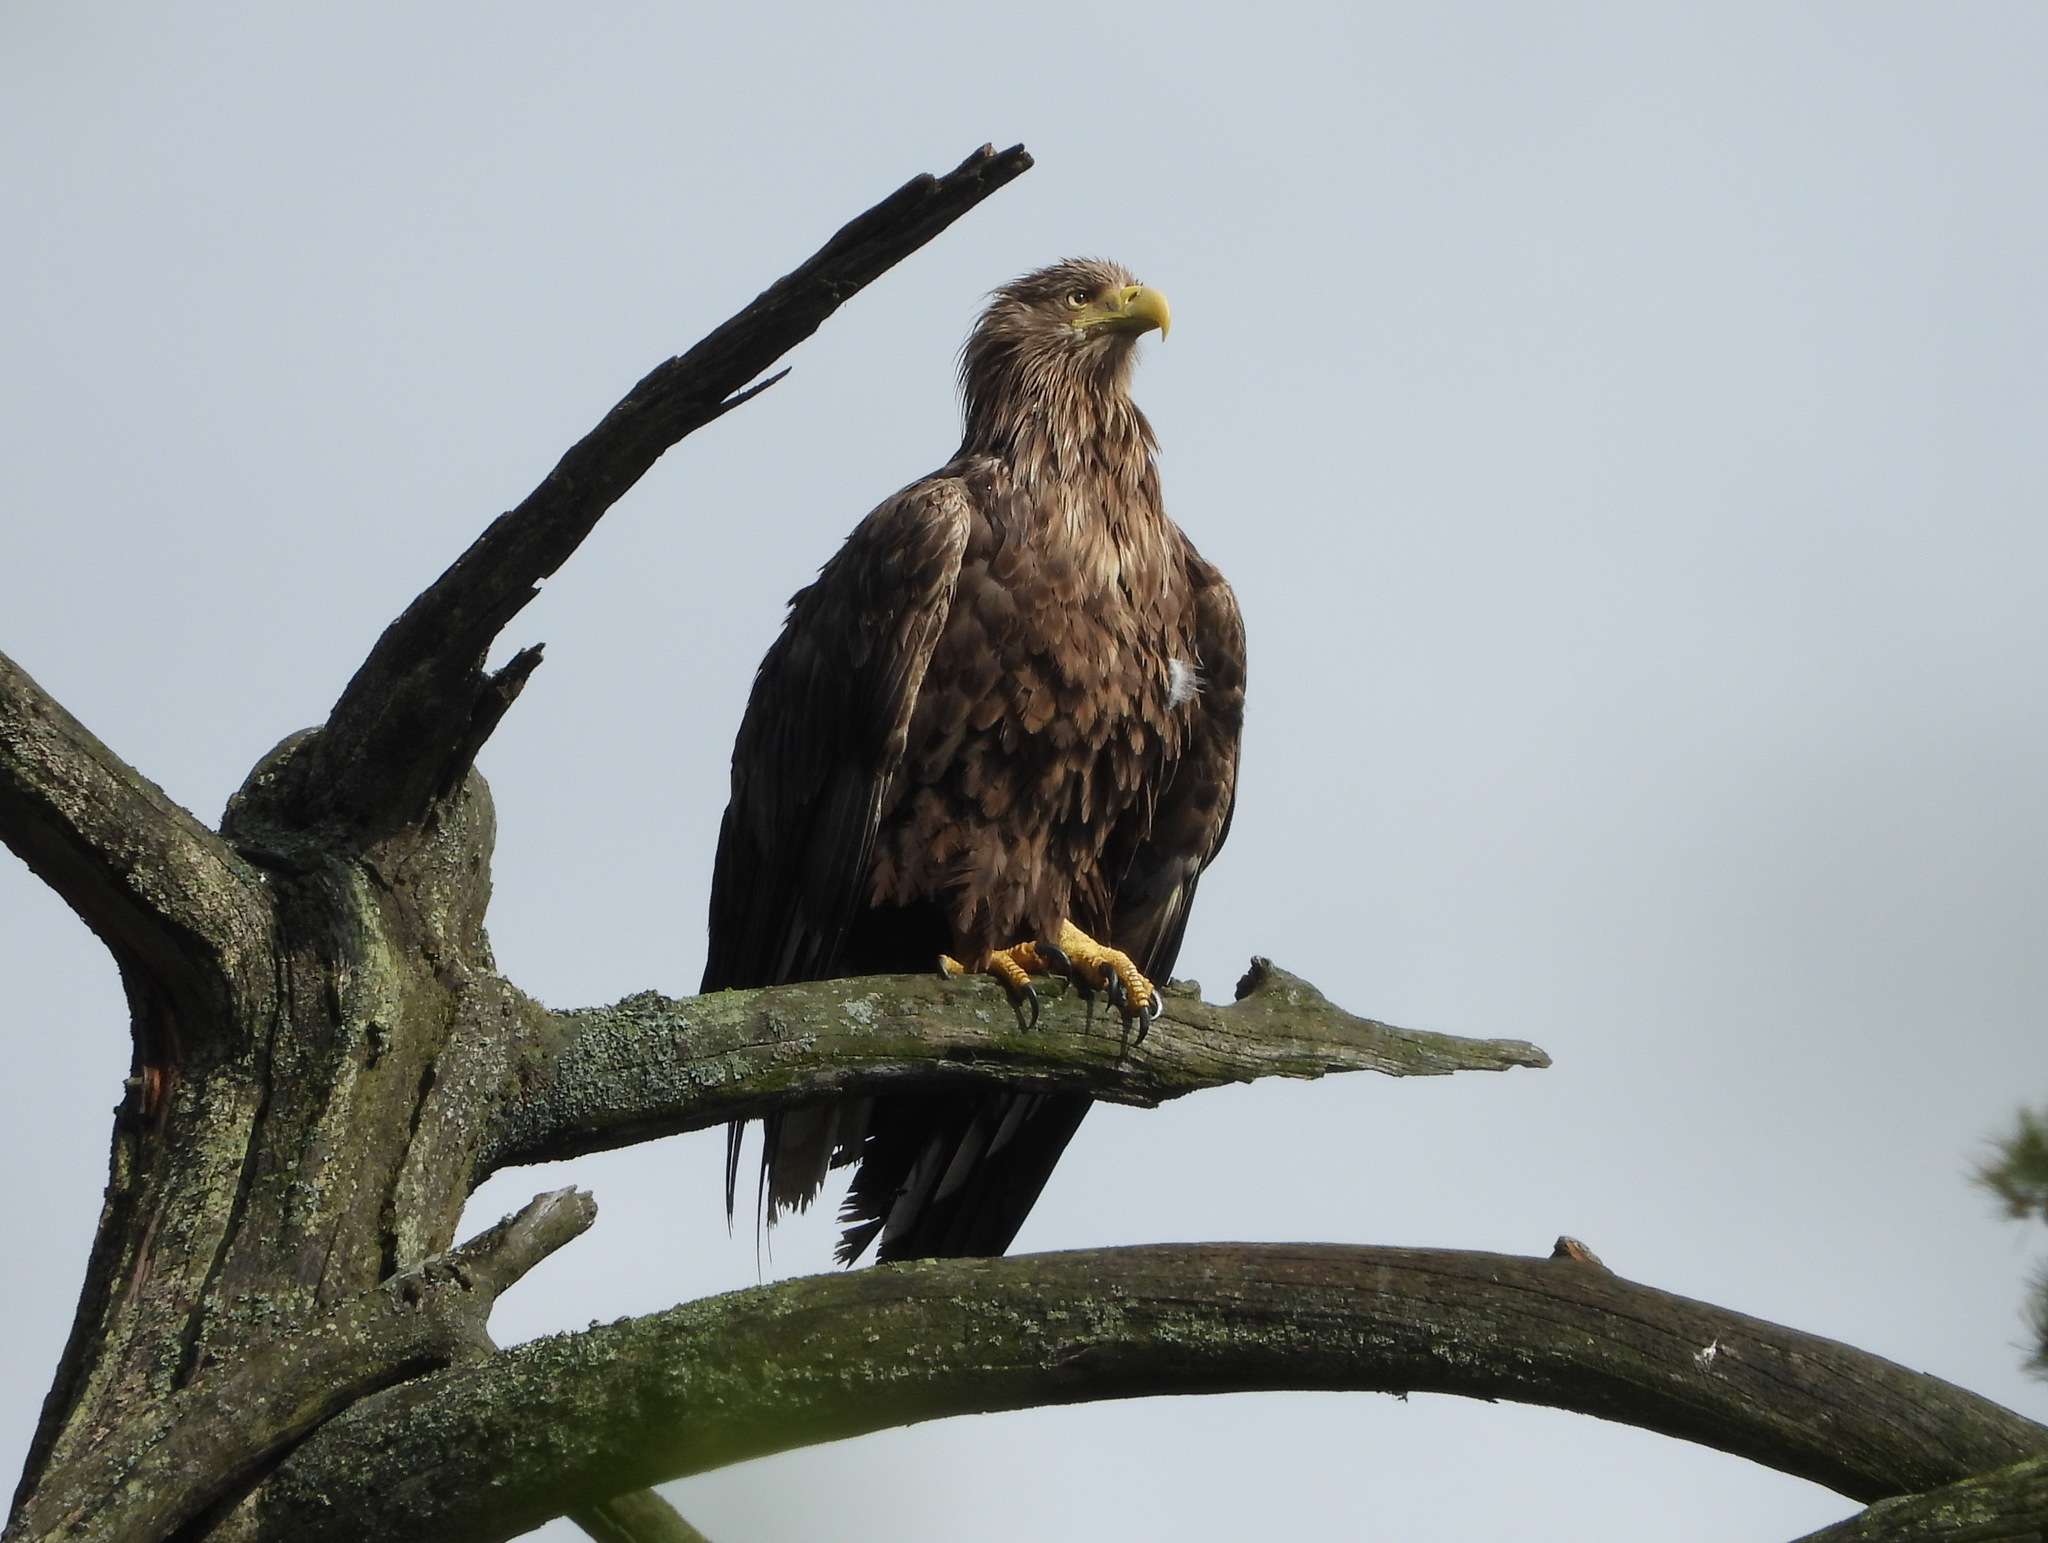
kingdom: Animalia
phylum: Chordata
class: Aves
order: Accipitriformes
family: Accipitridae
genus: Haliaeetus
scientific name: Haliaeetus albicilla
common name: White-tailed eagle
